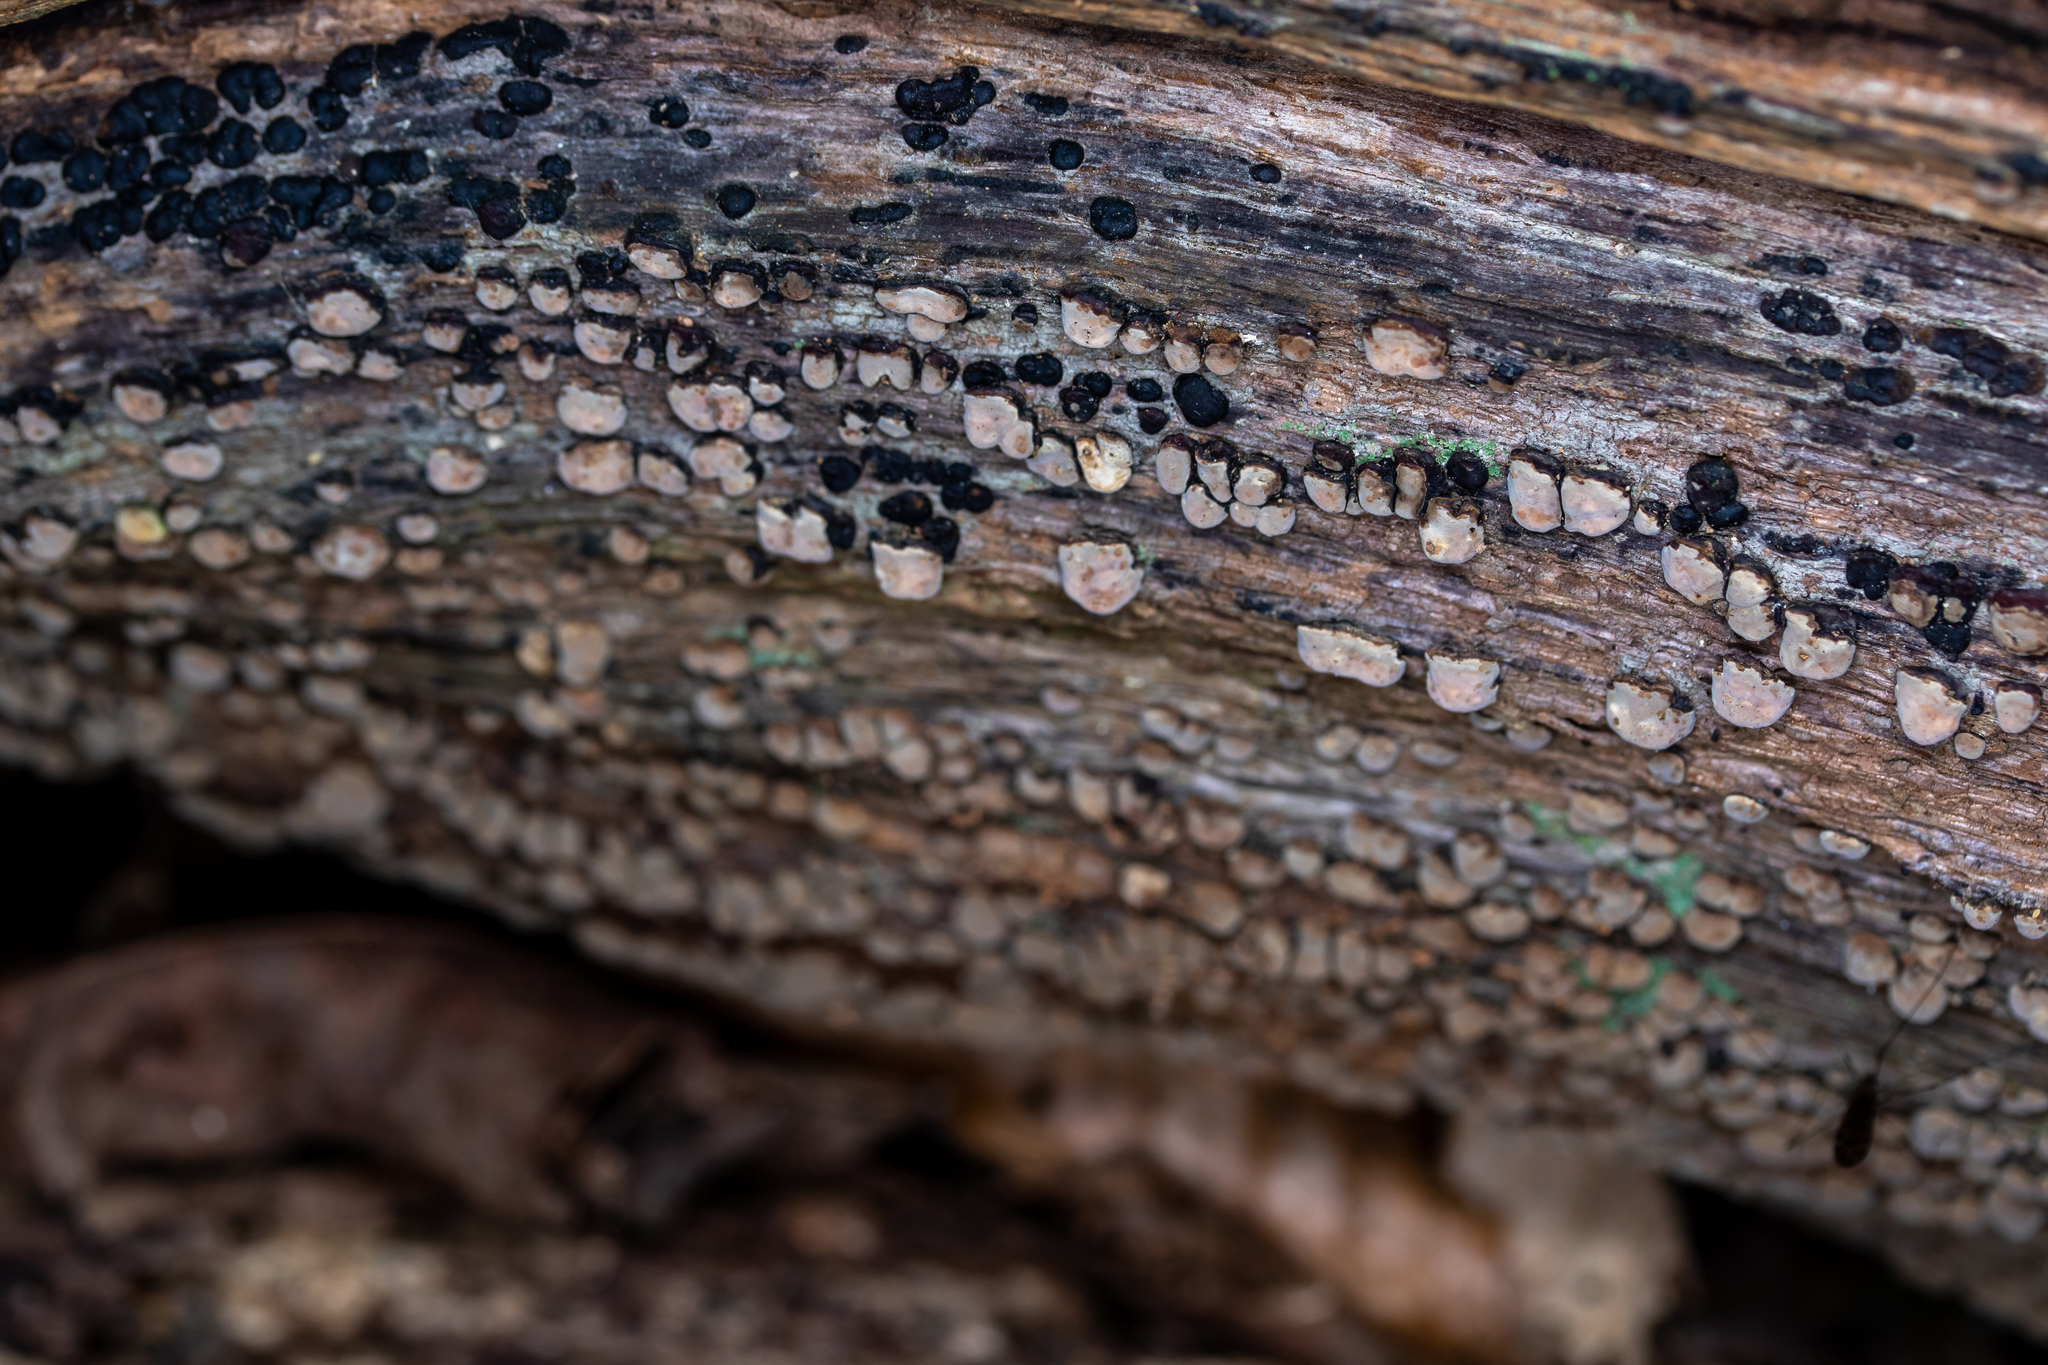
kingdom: Fungi
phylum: Basidiomycota
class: Agaricomycetes
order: Russulales
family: Stereaceae
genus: Xylobolus
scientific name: Xylobolus frustulatus
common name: Ceramic parchment
